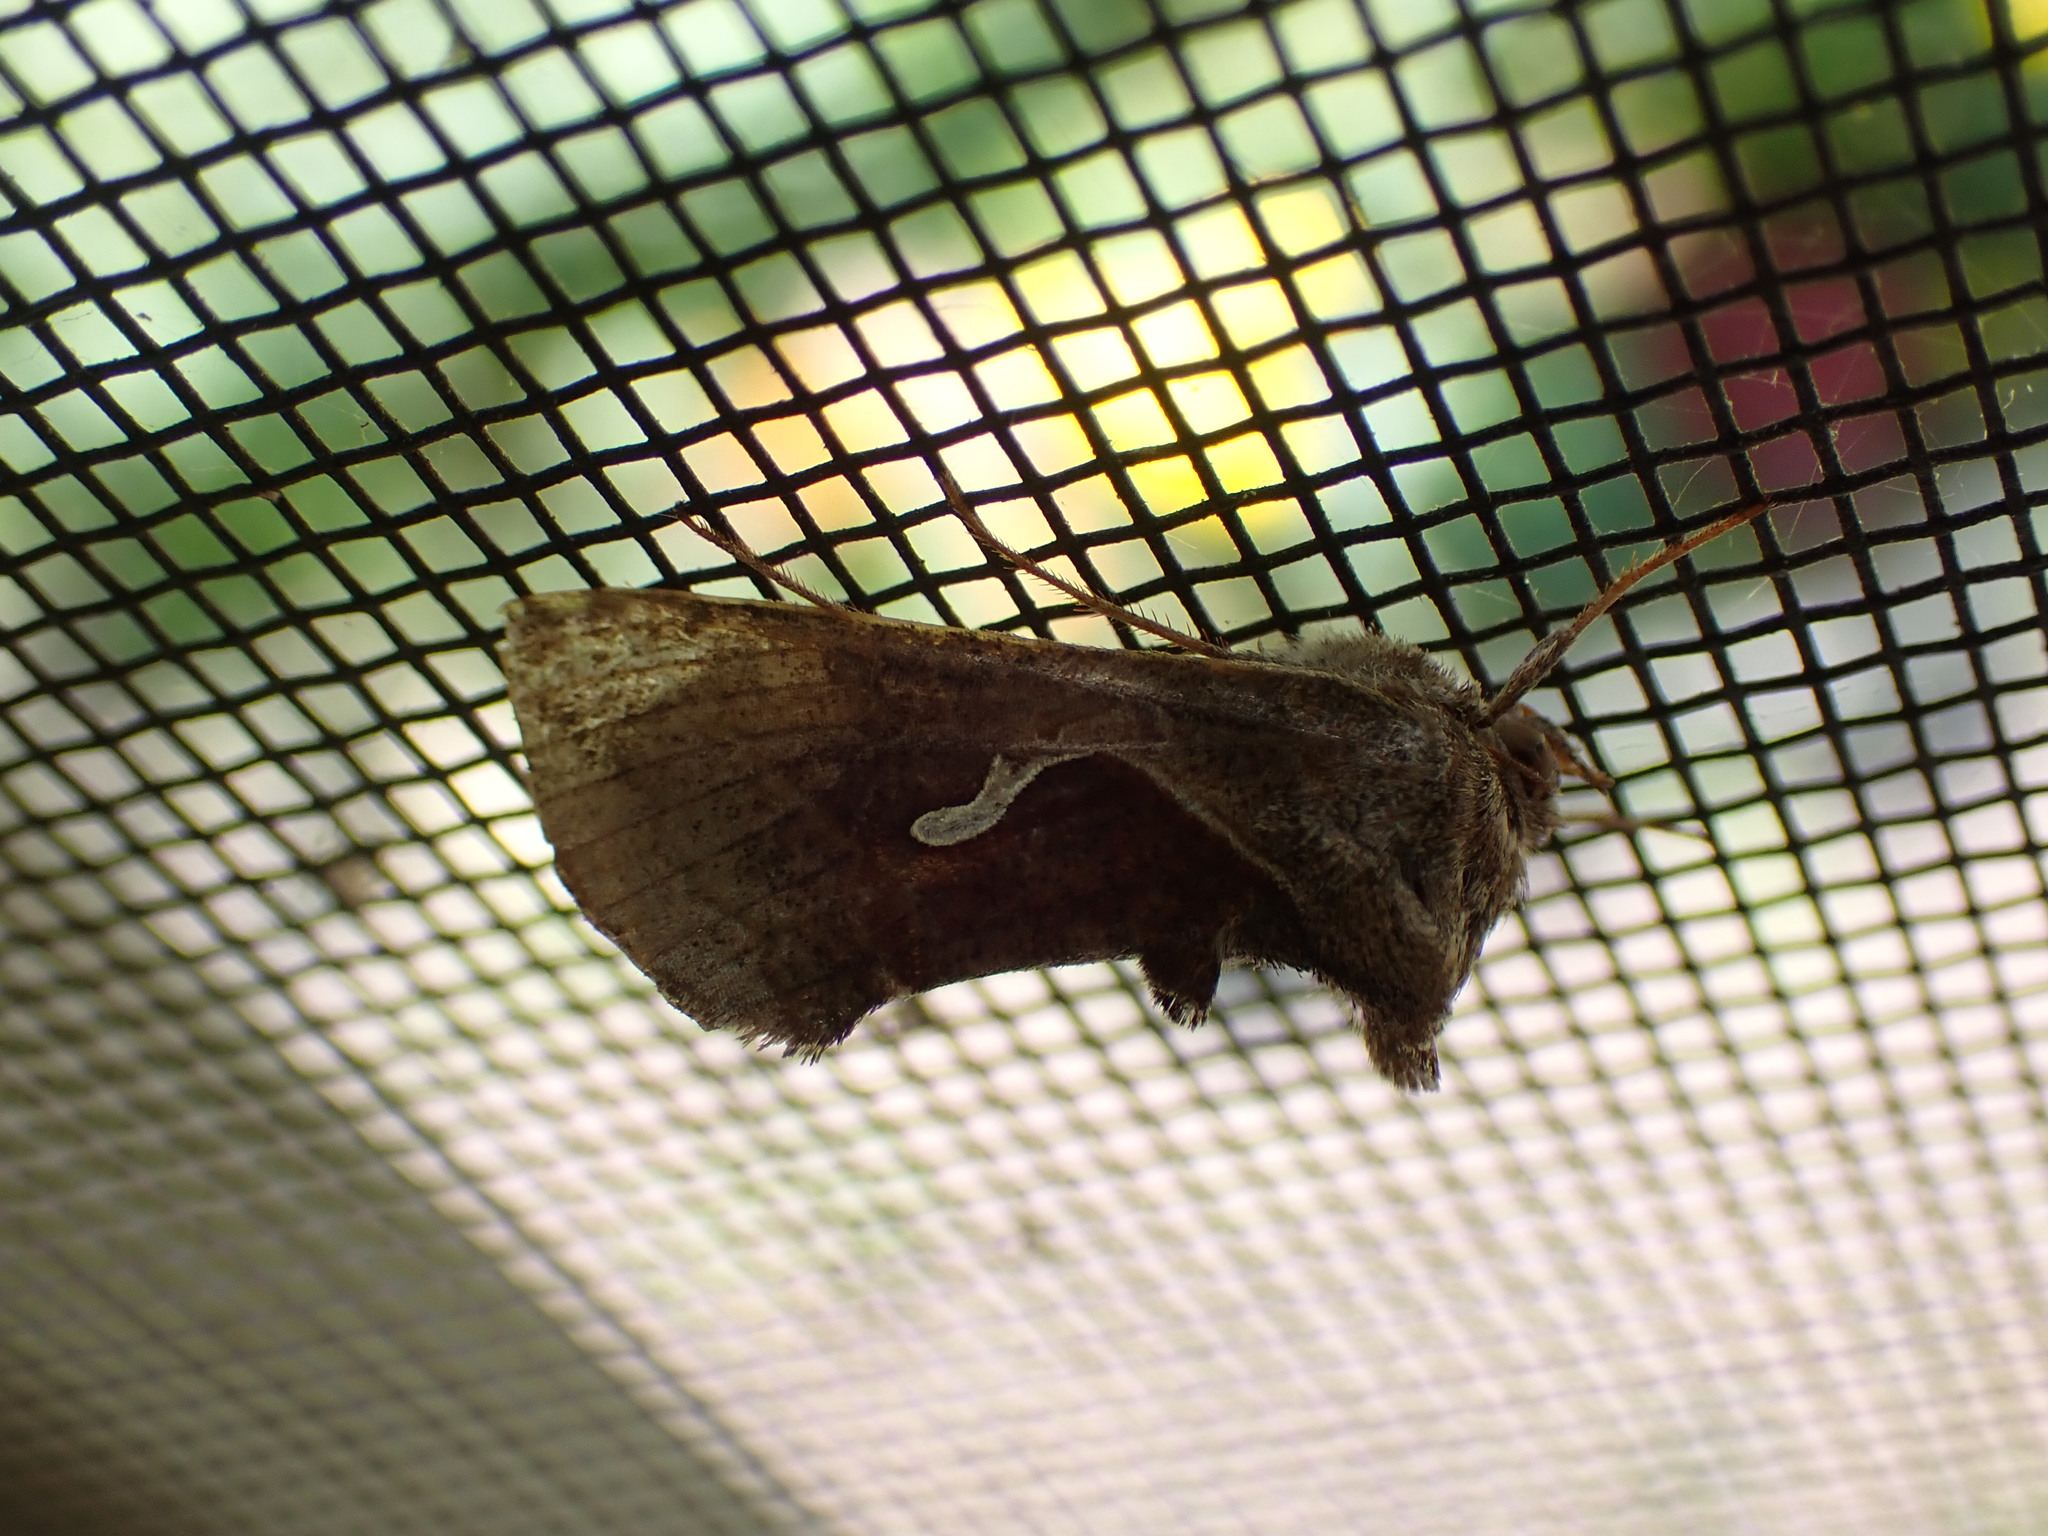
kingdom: Animalia
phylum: Arthropoda
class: Insecta
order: Lepidoptera
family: Noctuidae
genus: Anagrapha
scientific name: Anagrapha falcifera
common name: Celery looper
